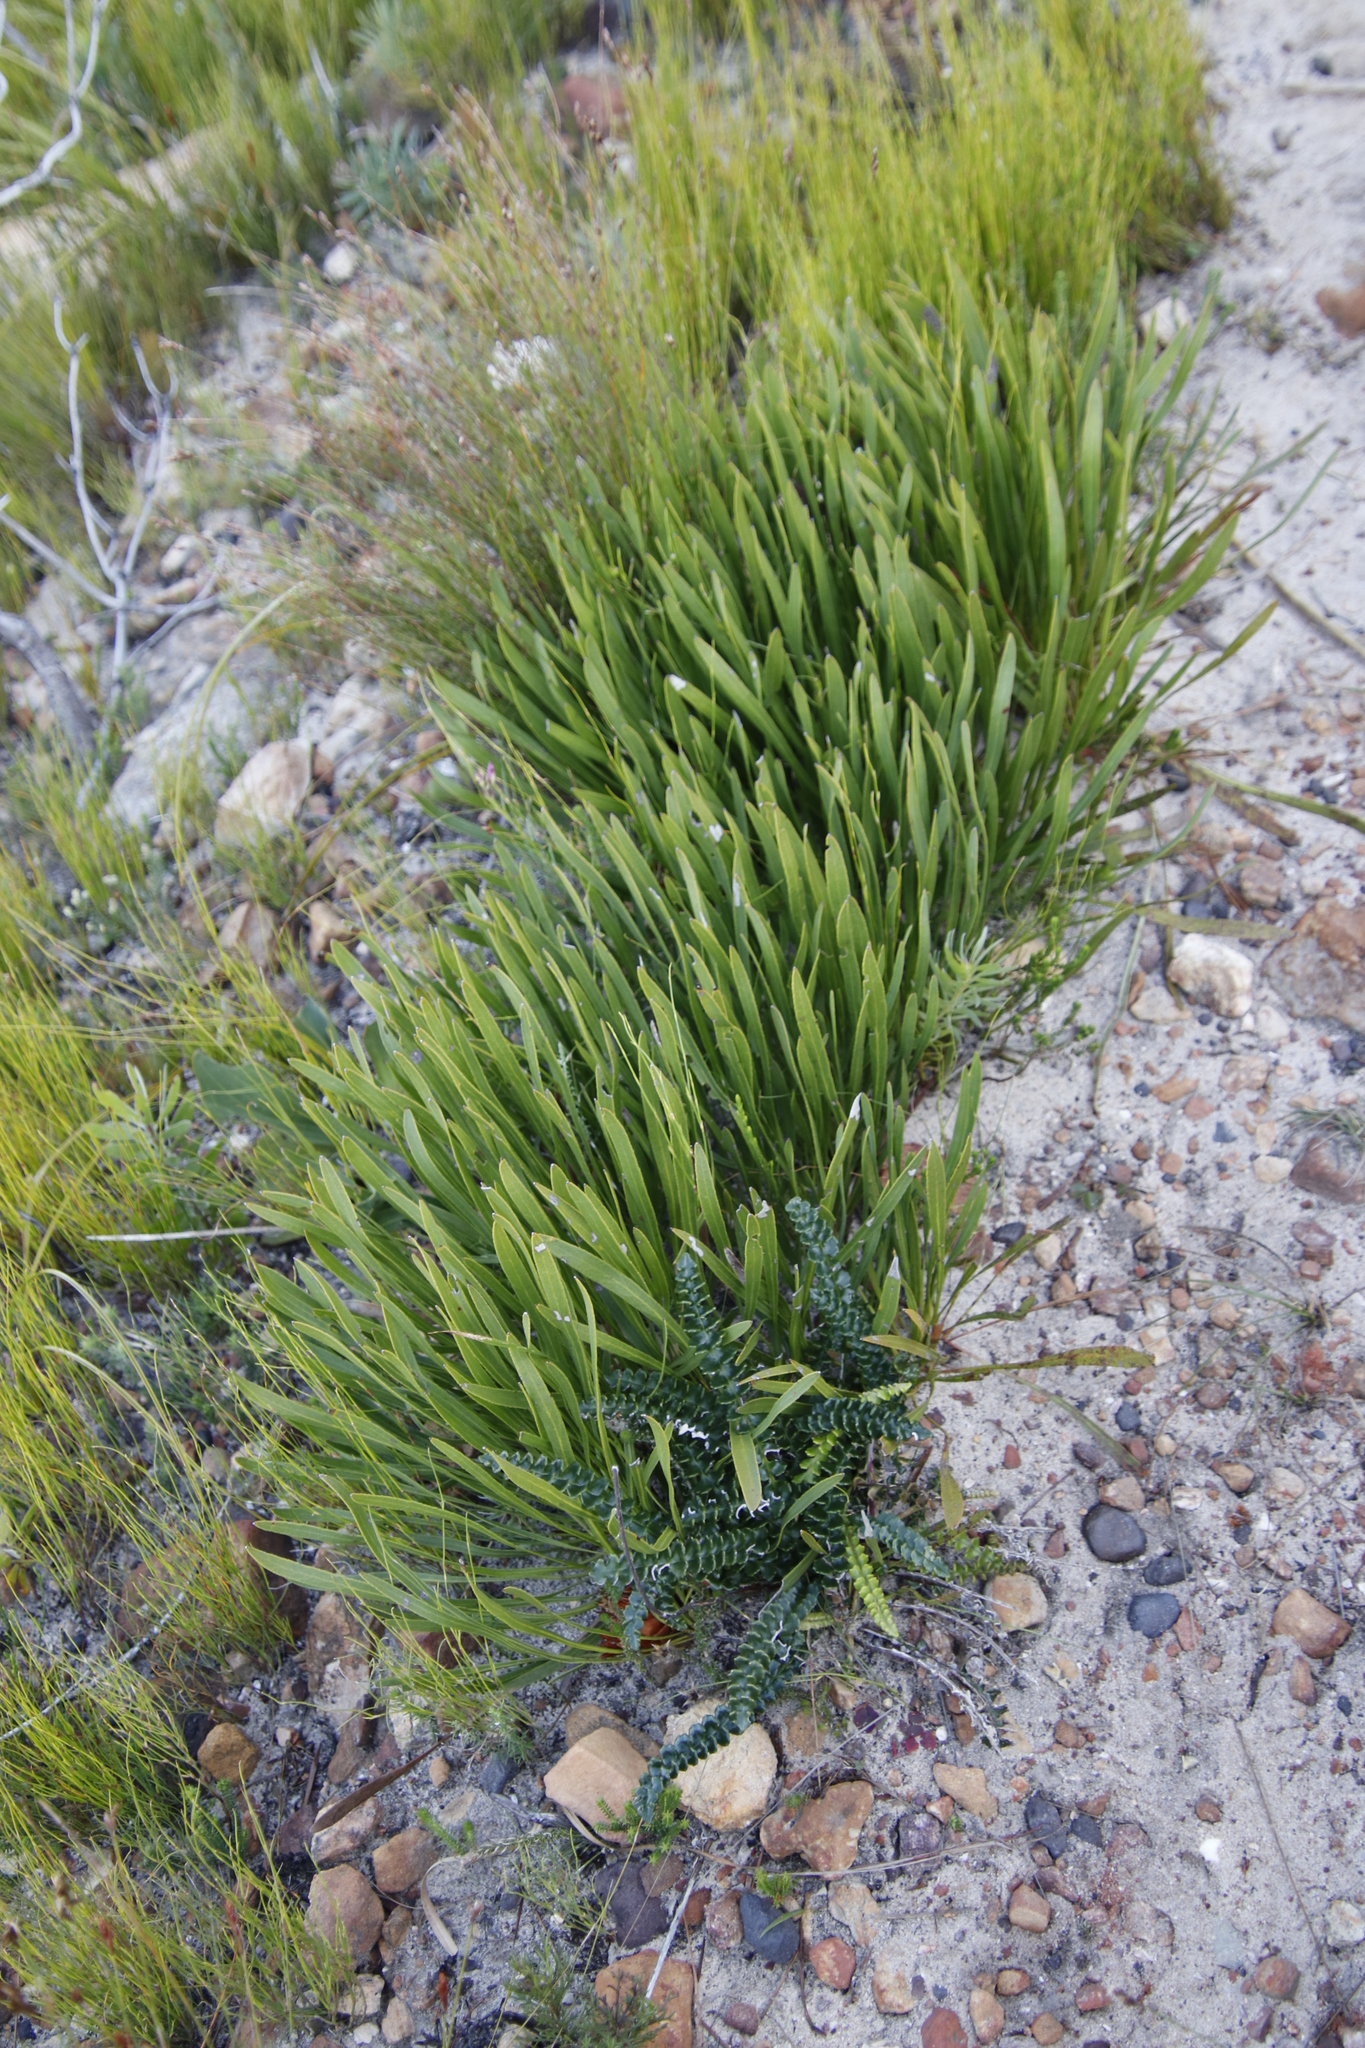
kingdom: Plantae
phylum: Tracheophyta
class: Magnoliopsida
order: Asterales
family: Asteraceae
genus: Gerbera
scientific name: Gerbera linnaei
